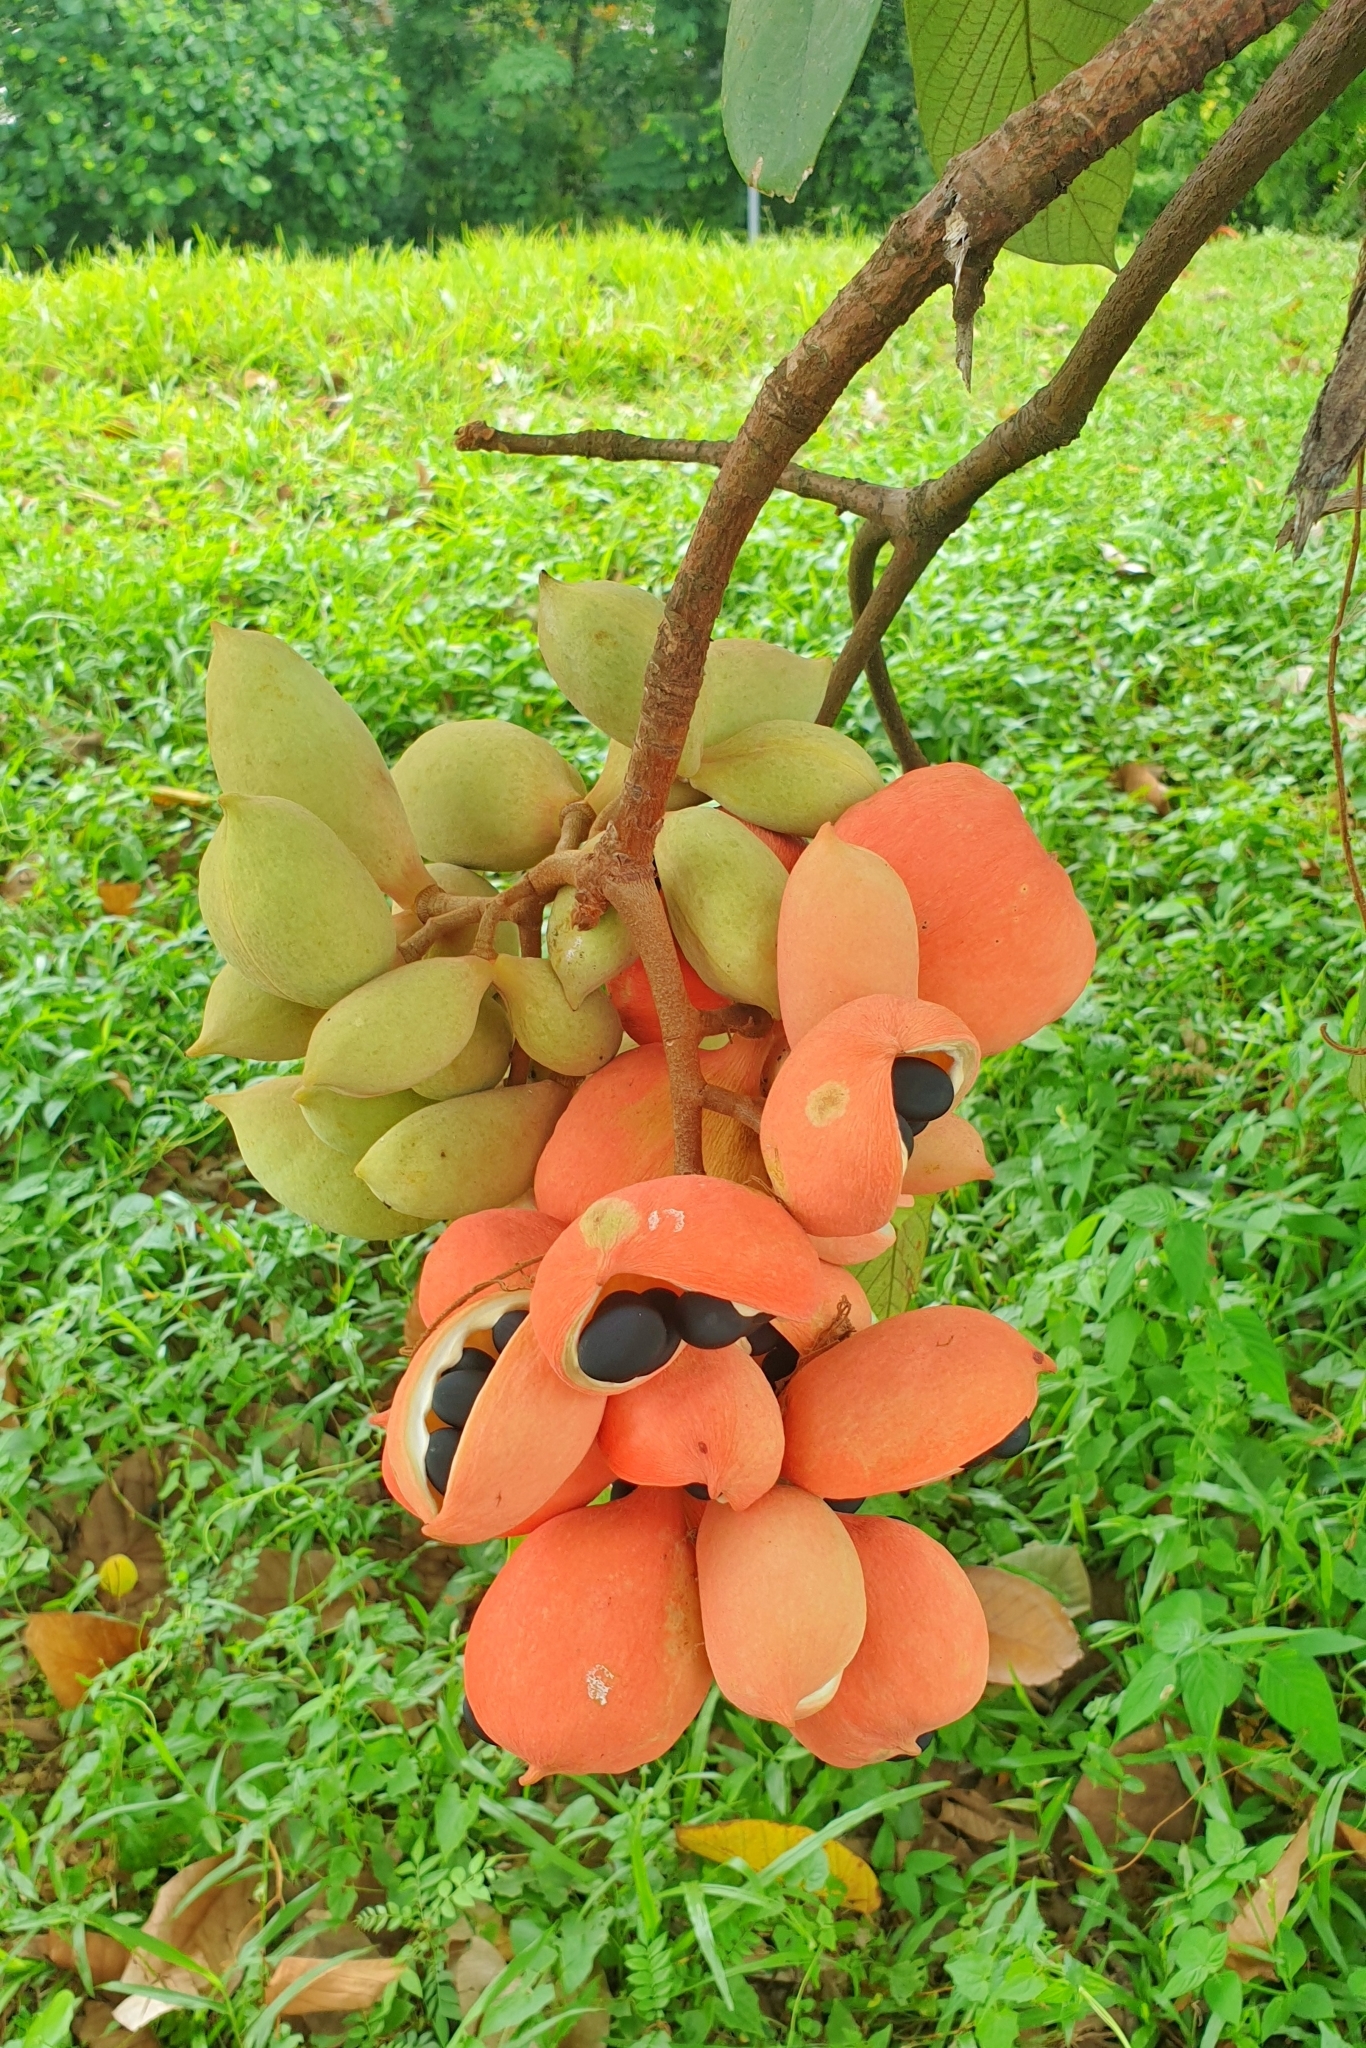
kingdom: Plantae
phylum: Tracheophyta
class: Magnoliopsida
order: Malvales
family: Malvaceae
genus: Sterculia
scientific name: Sterculia cordata
